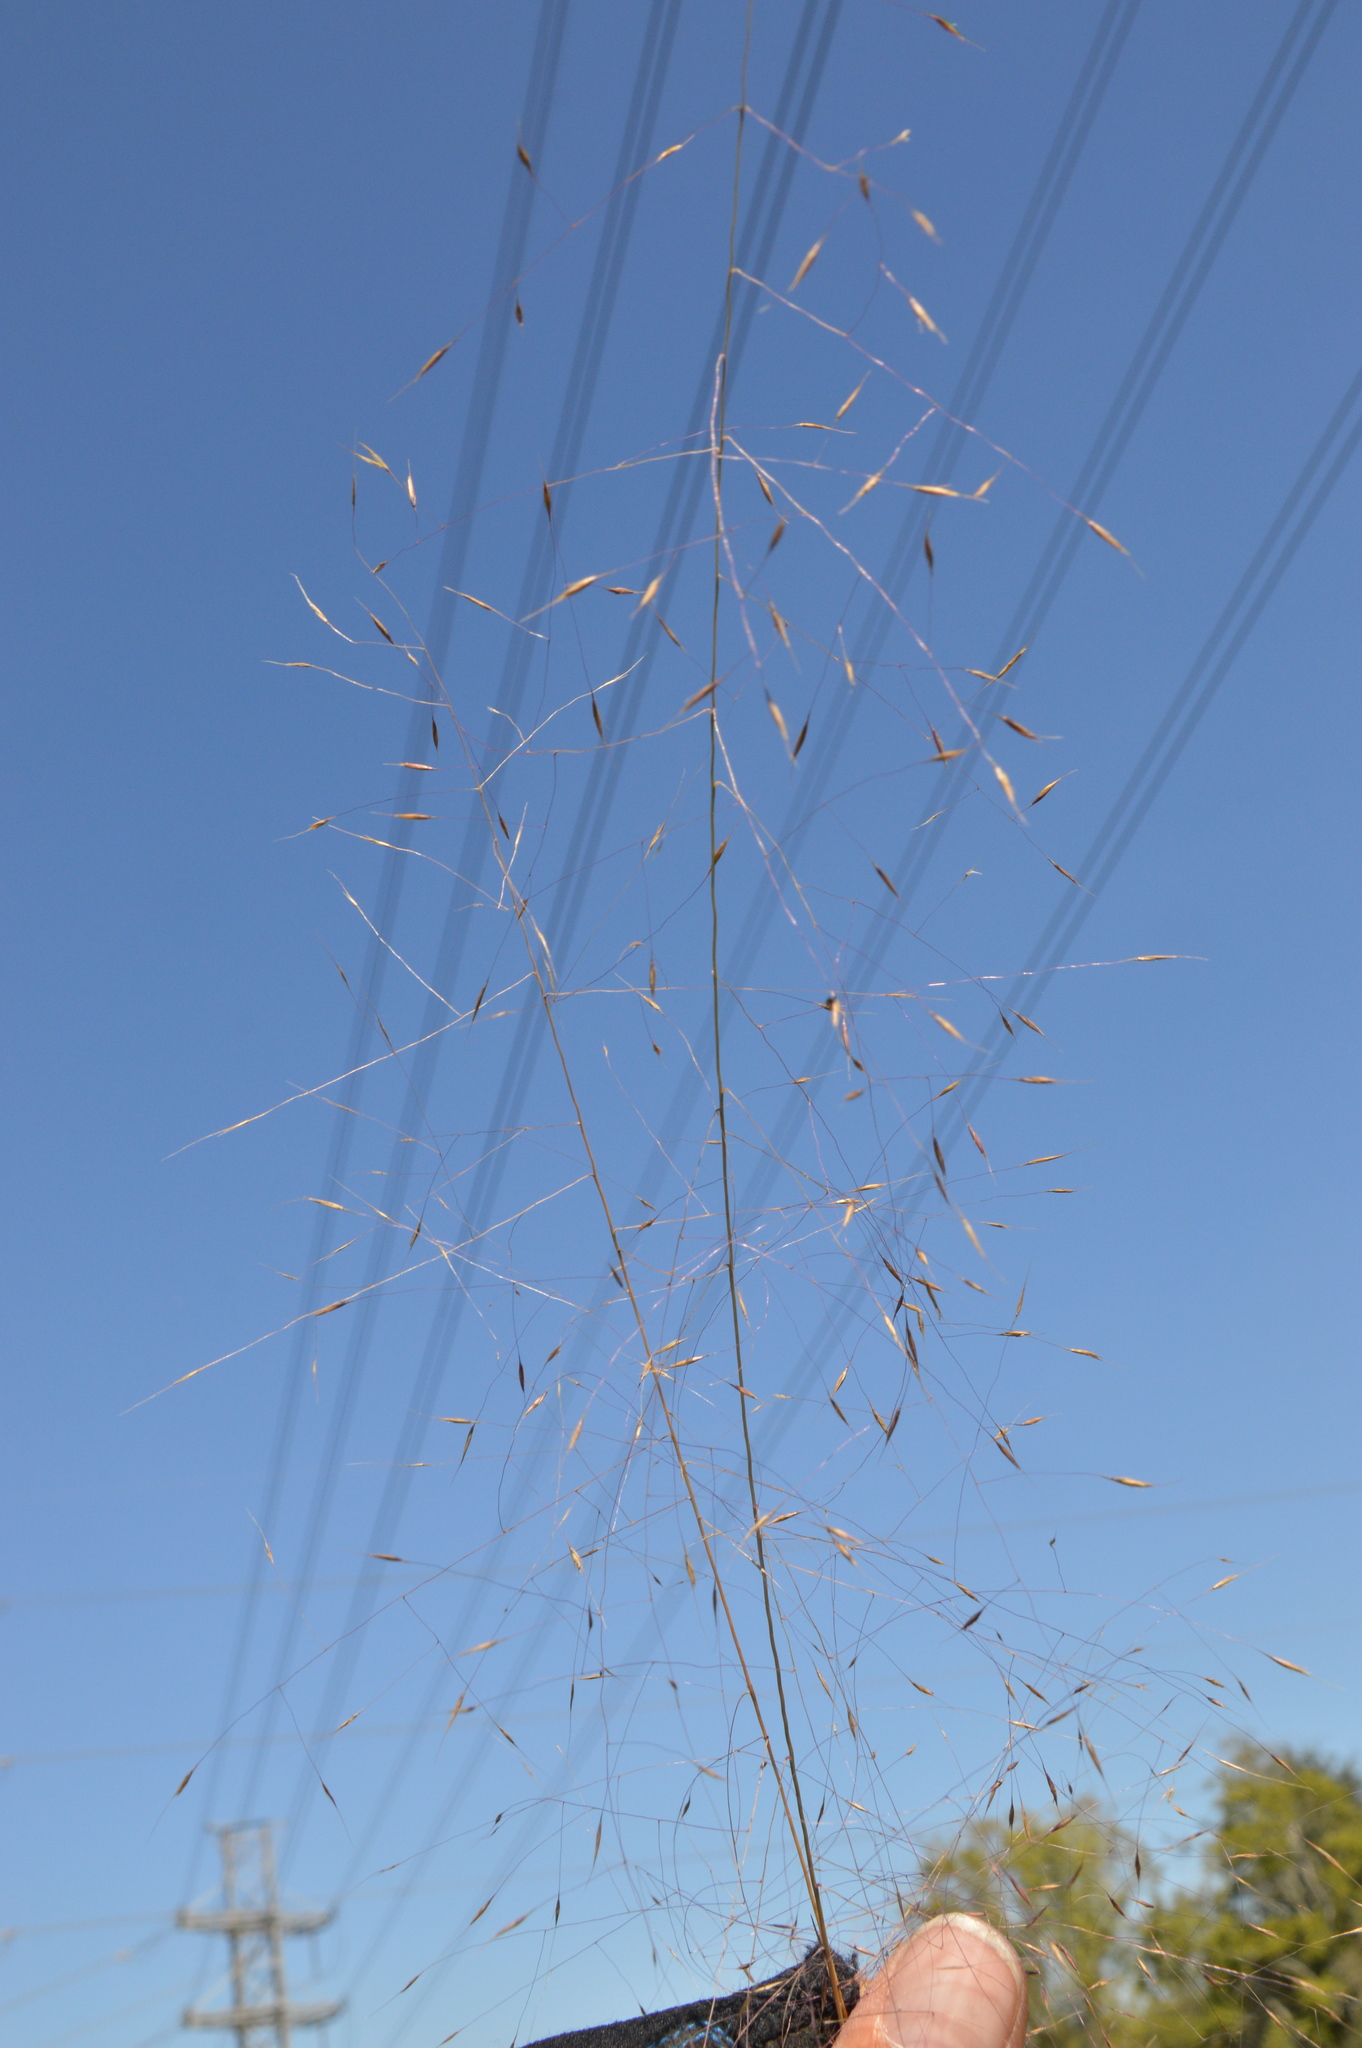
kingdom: Plantae
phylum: Tracheophyta
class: Liliopsida
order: Poales
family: Poaceae
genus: Muhlenbergia
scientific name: Muhlenbergia capillaris
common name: Purple grass
